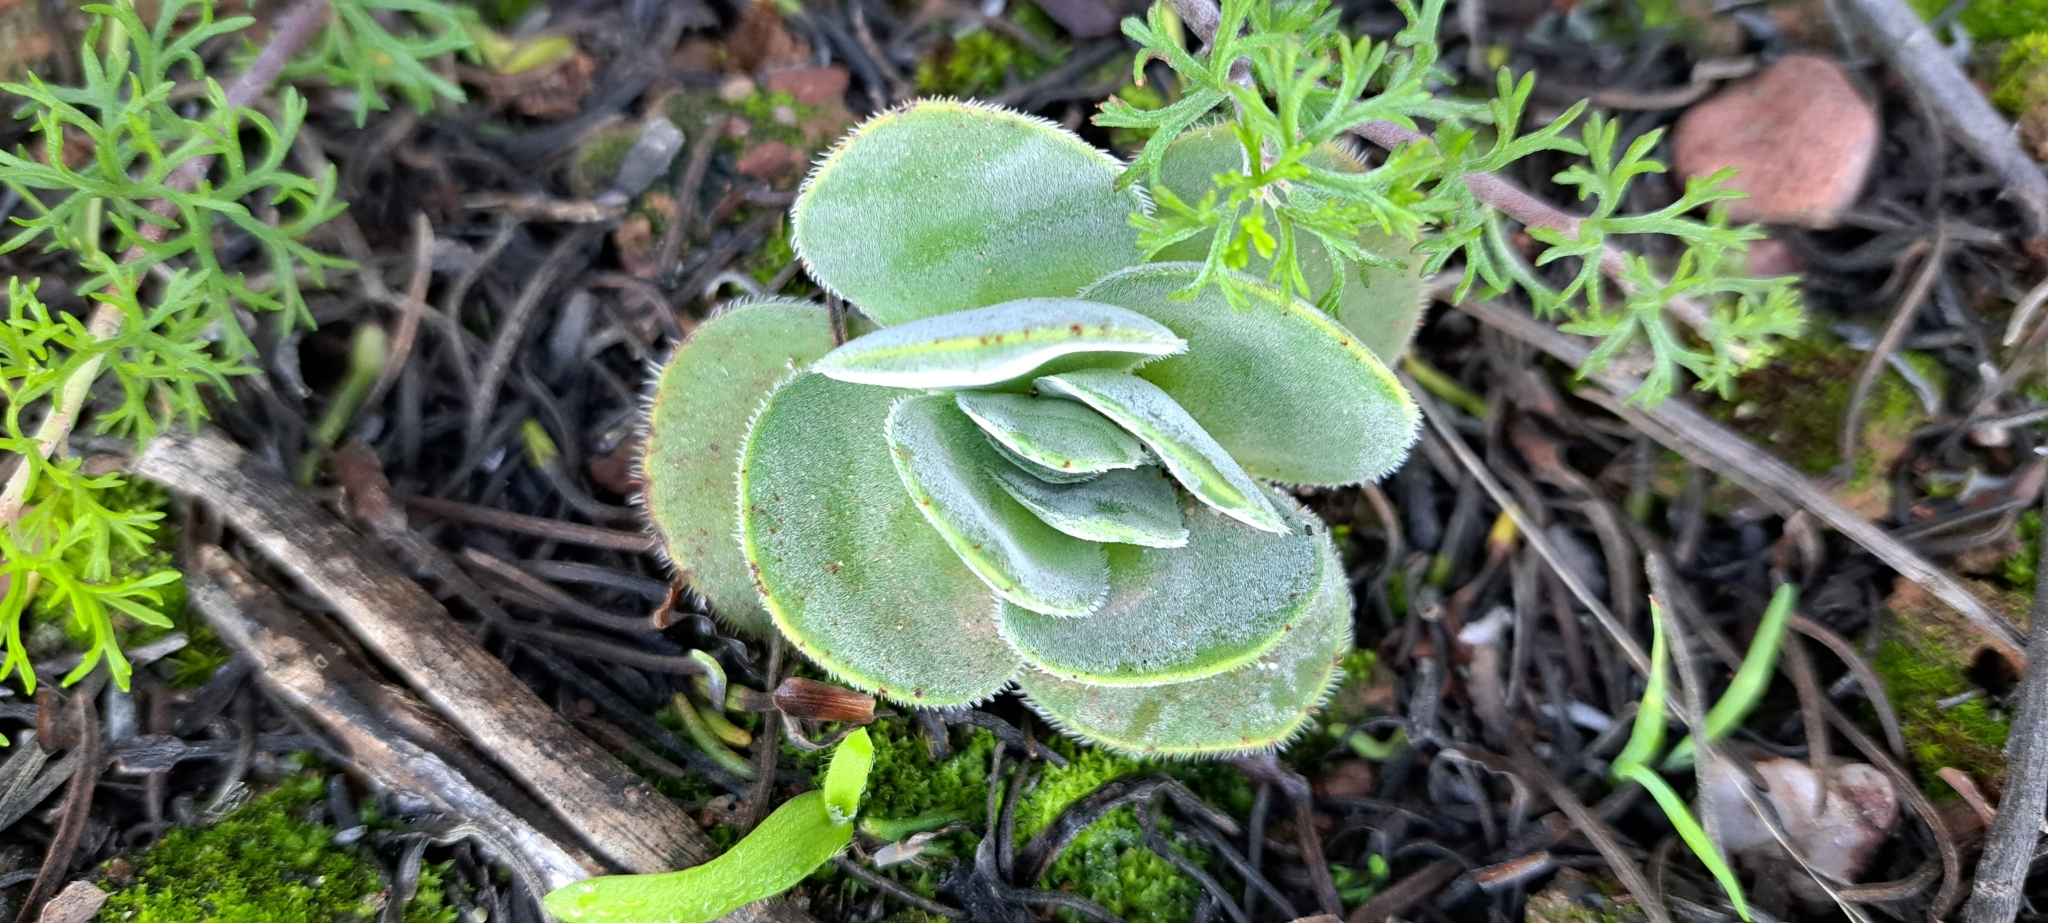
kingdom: Plantae
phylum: Tracheophyta
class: Magnoliopsida
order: Saxifragales
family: Crassulaceae
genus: Crassula
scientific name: Crassula tomentosa
